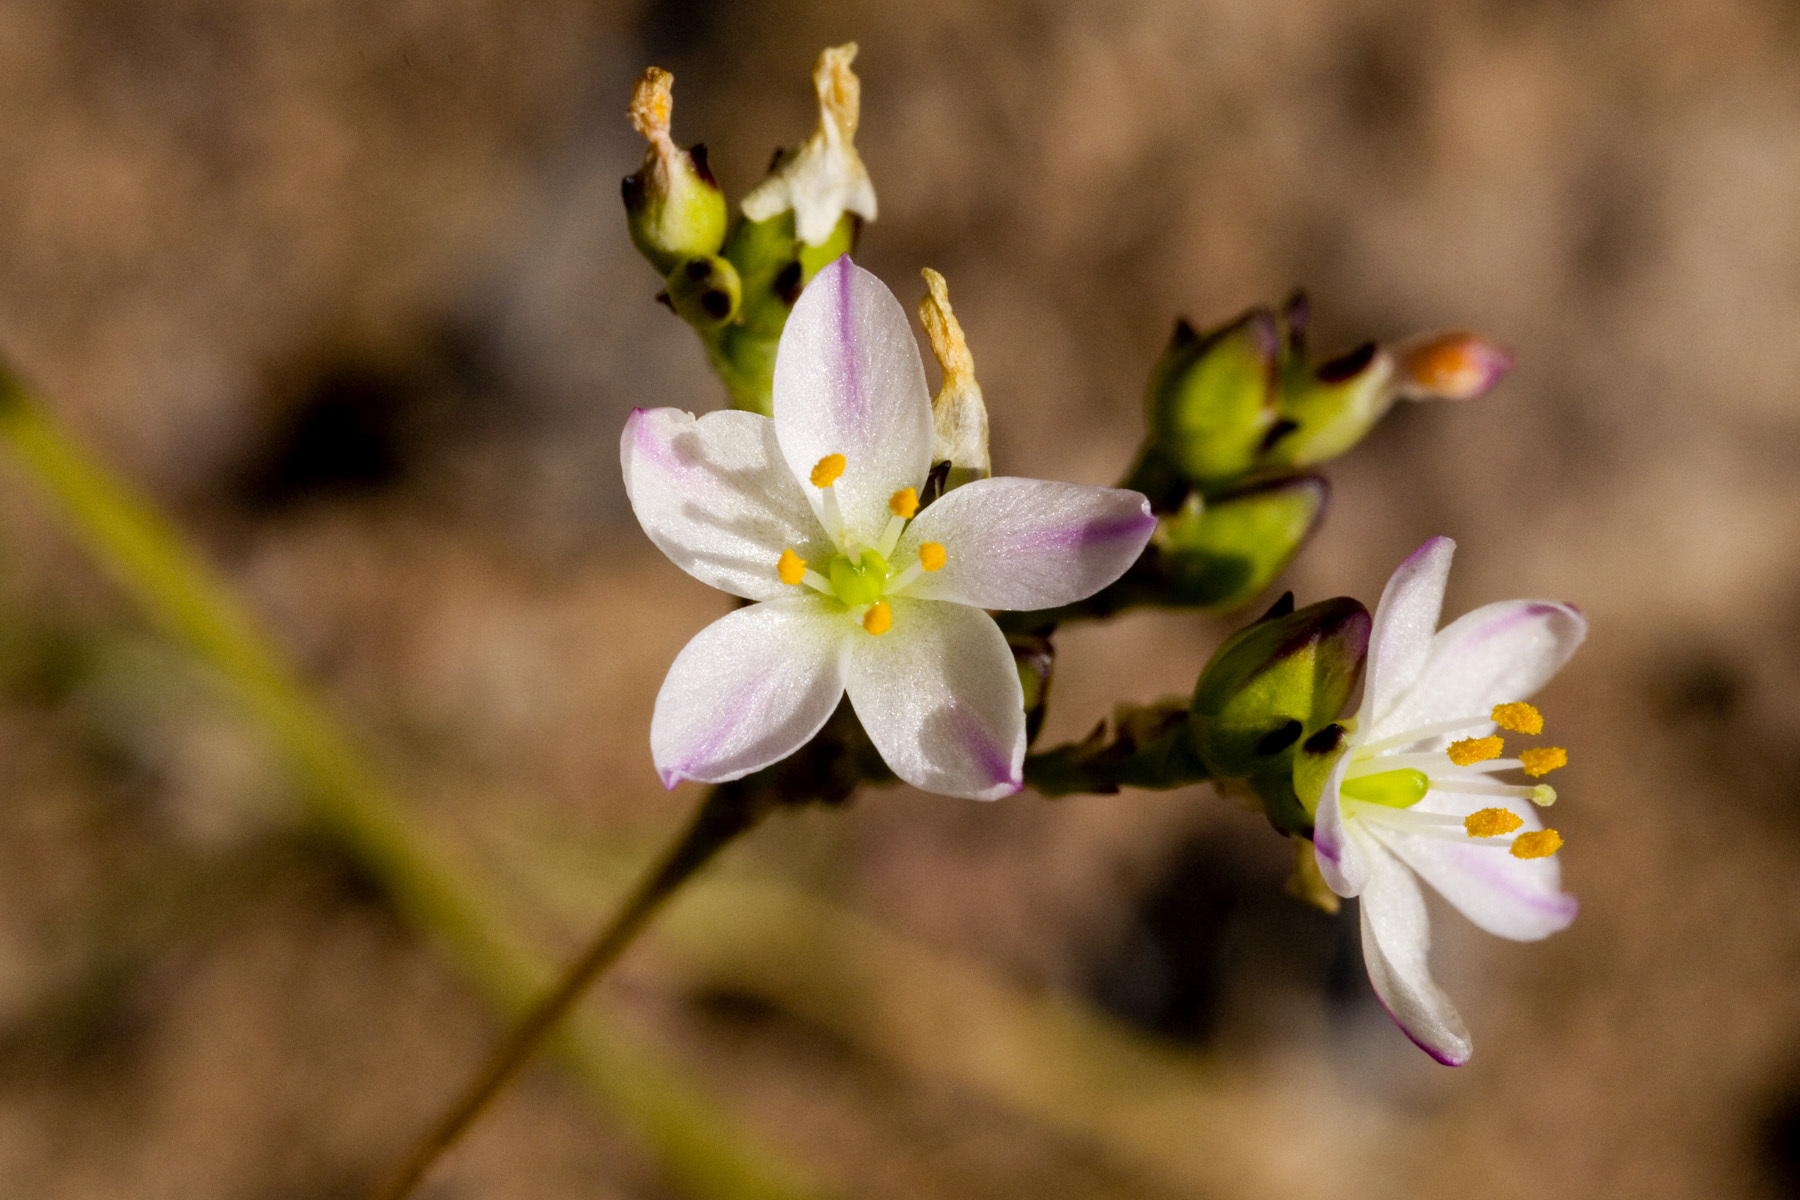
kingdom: Plantae
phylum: Tracheophyta
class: Magnoliopsida
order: Caryophyllales
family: Montiaceae
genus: Phemeranthus
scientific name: Phemeranthus confertiflorus
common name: New mexico fameflower
